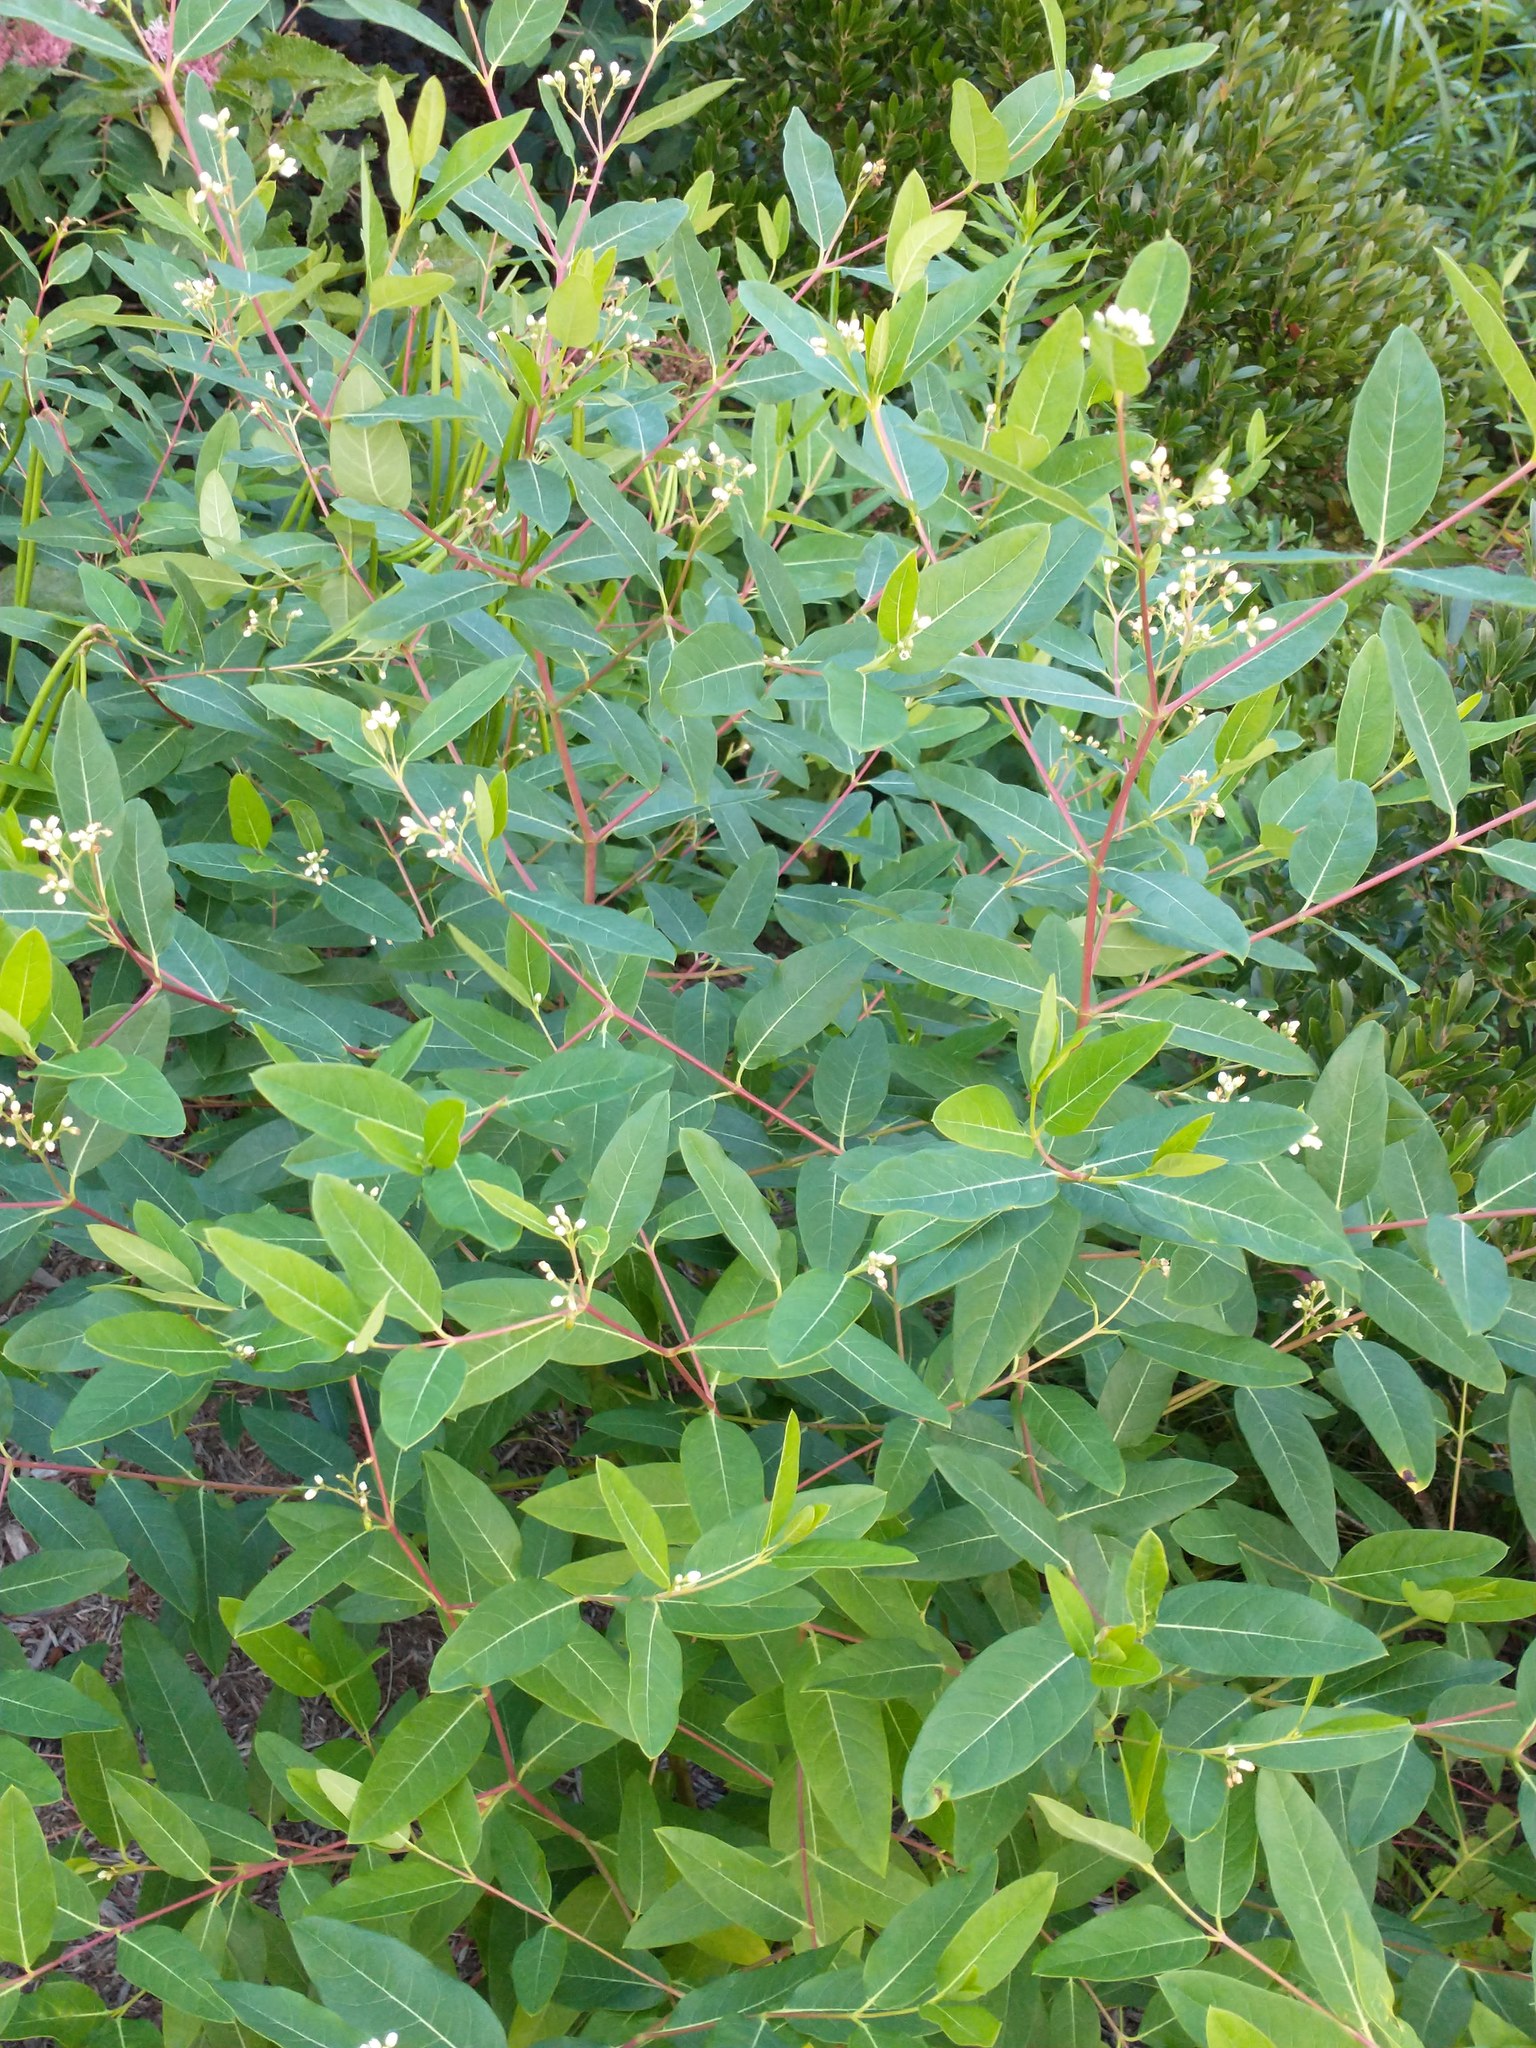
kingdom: Plantae
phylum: Tracheophyta
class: Magnoliopsida
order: Gentianales
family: Apocynaceae
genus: Apocynum
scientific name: Apocynum cannabinum
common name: Hemp dogbane
